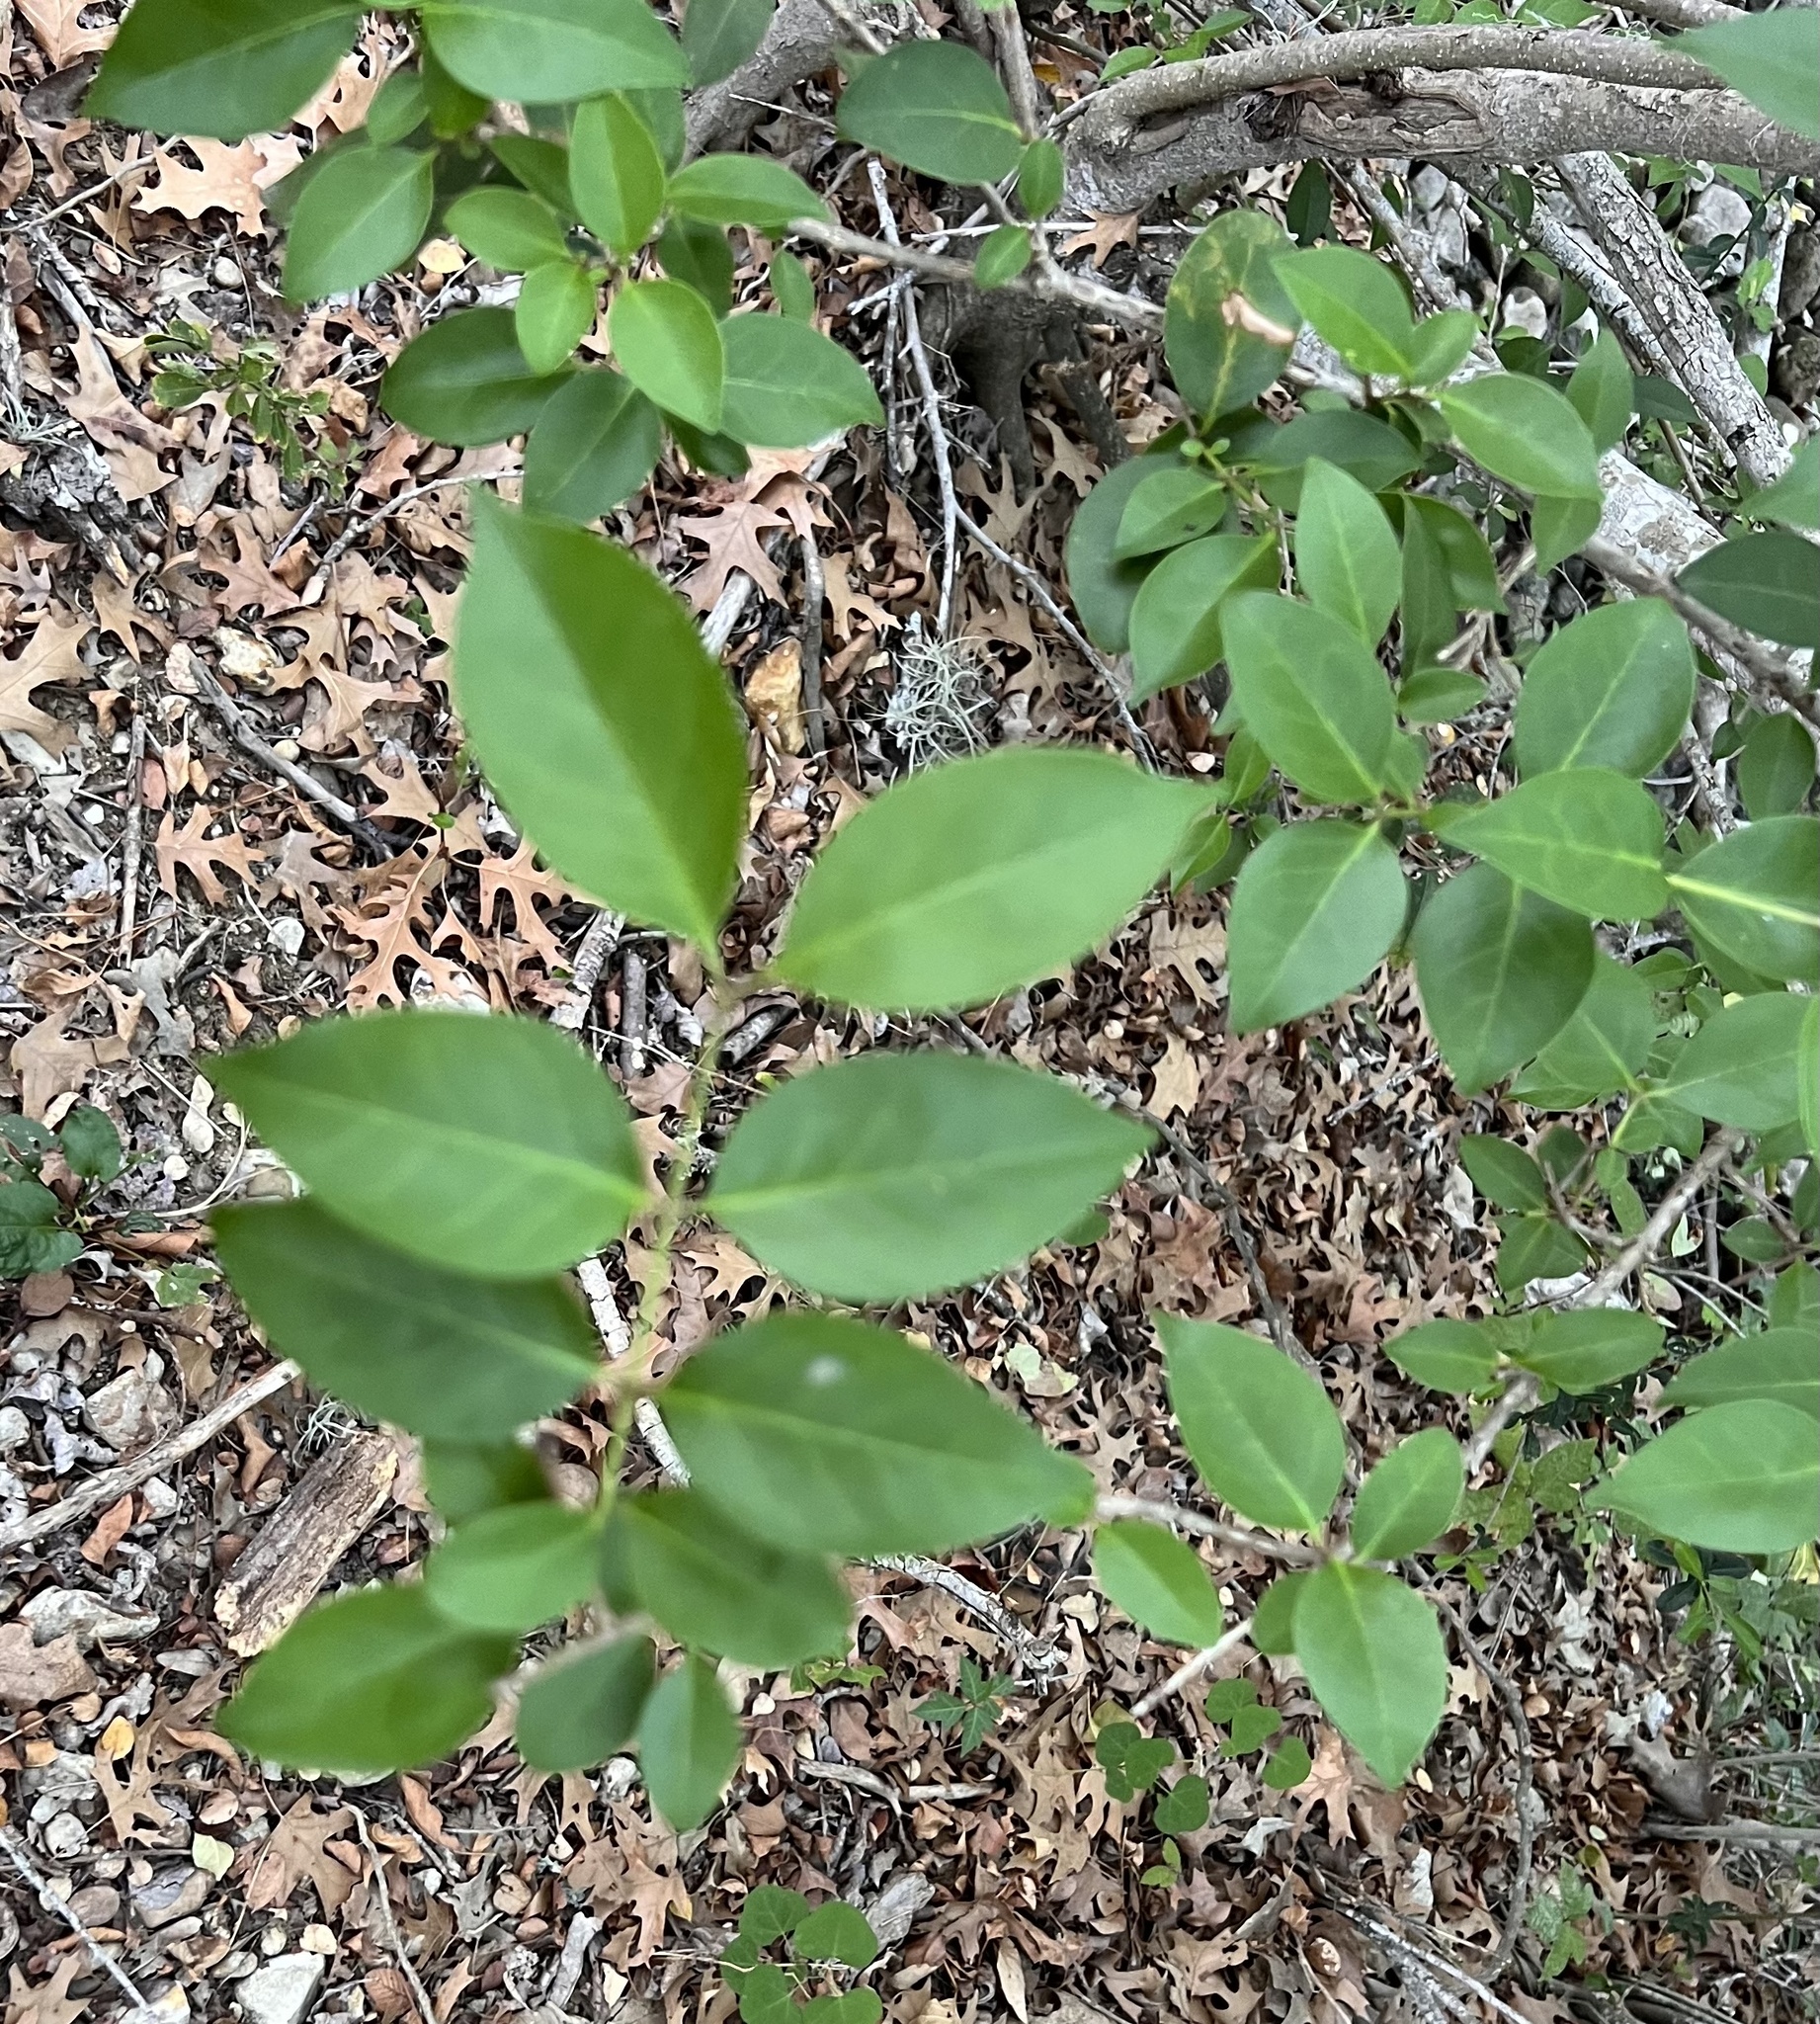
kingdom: Plantae
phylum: Tracheophyta
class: Magnoliopsida
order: Lamiales
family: Oleaceae
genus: Ligustrum
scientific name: Ligustrum lucidum
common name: Glossy privet
